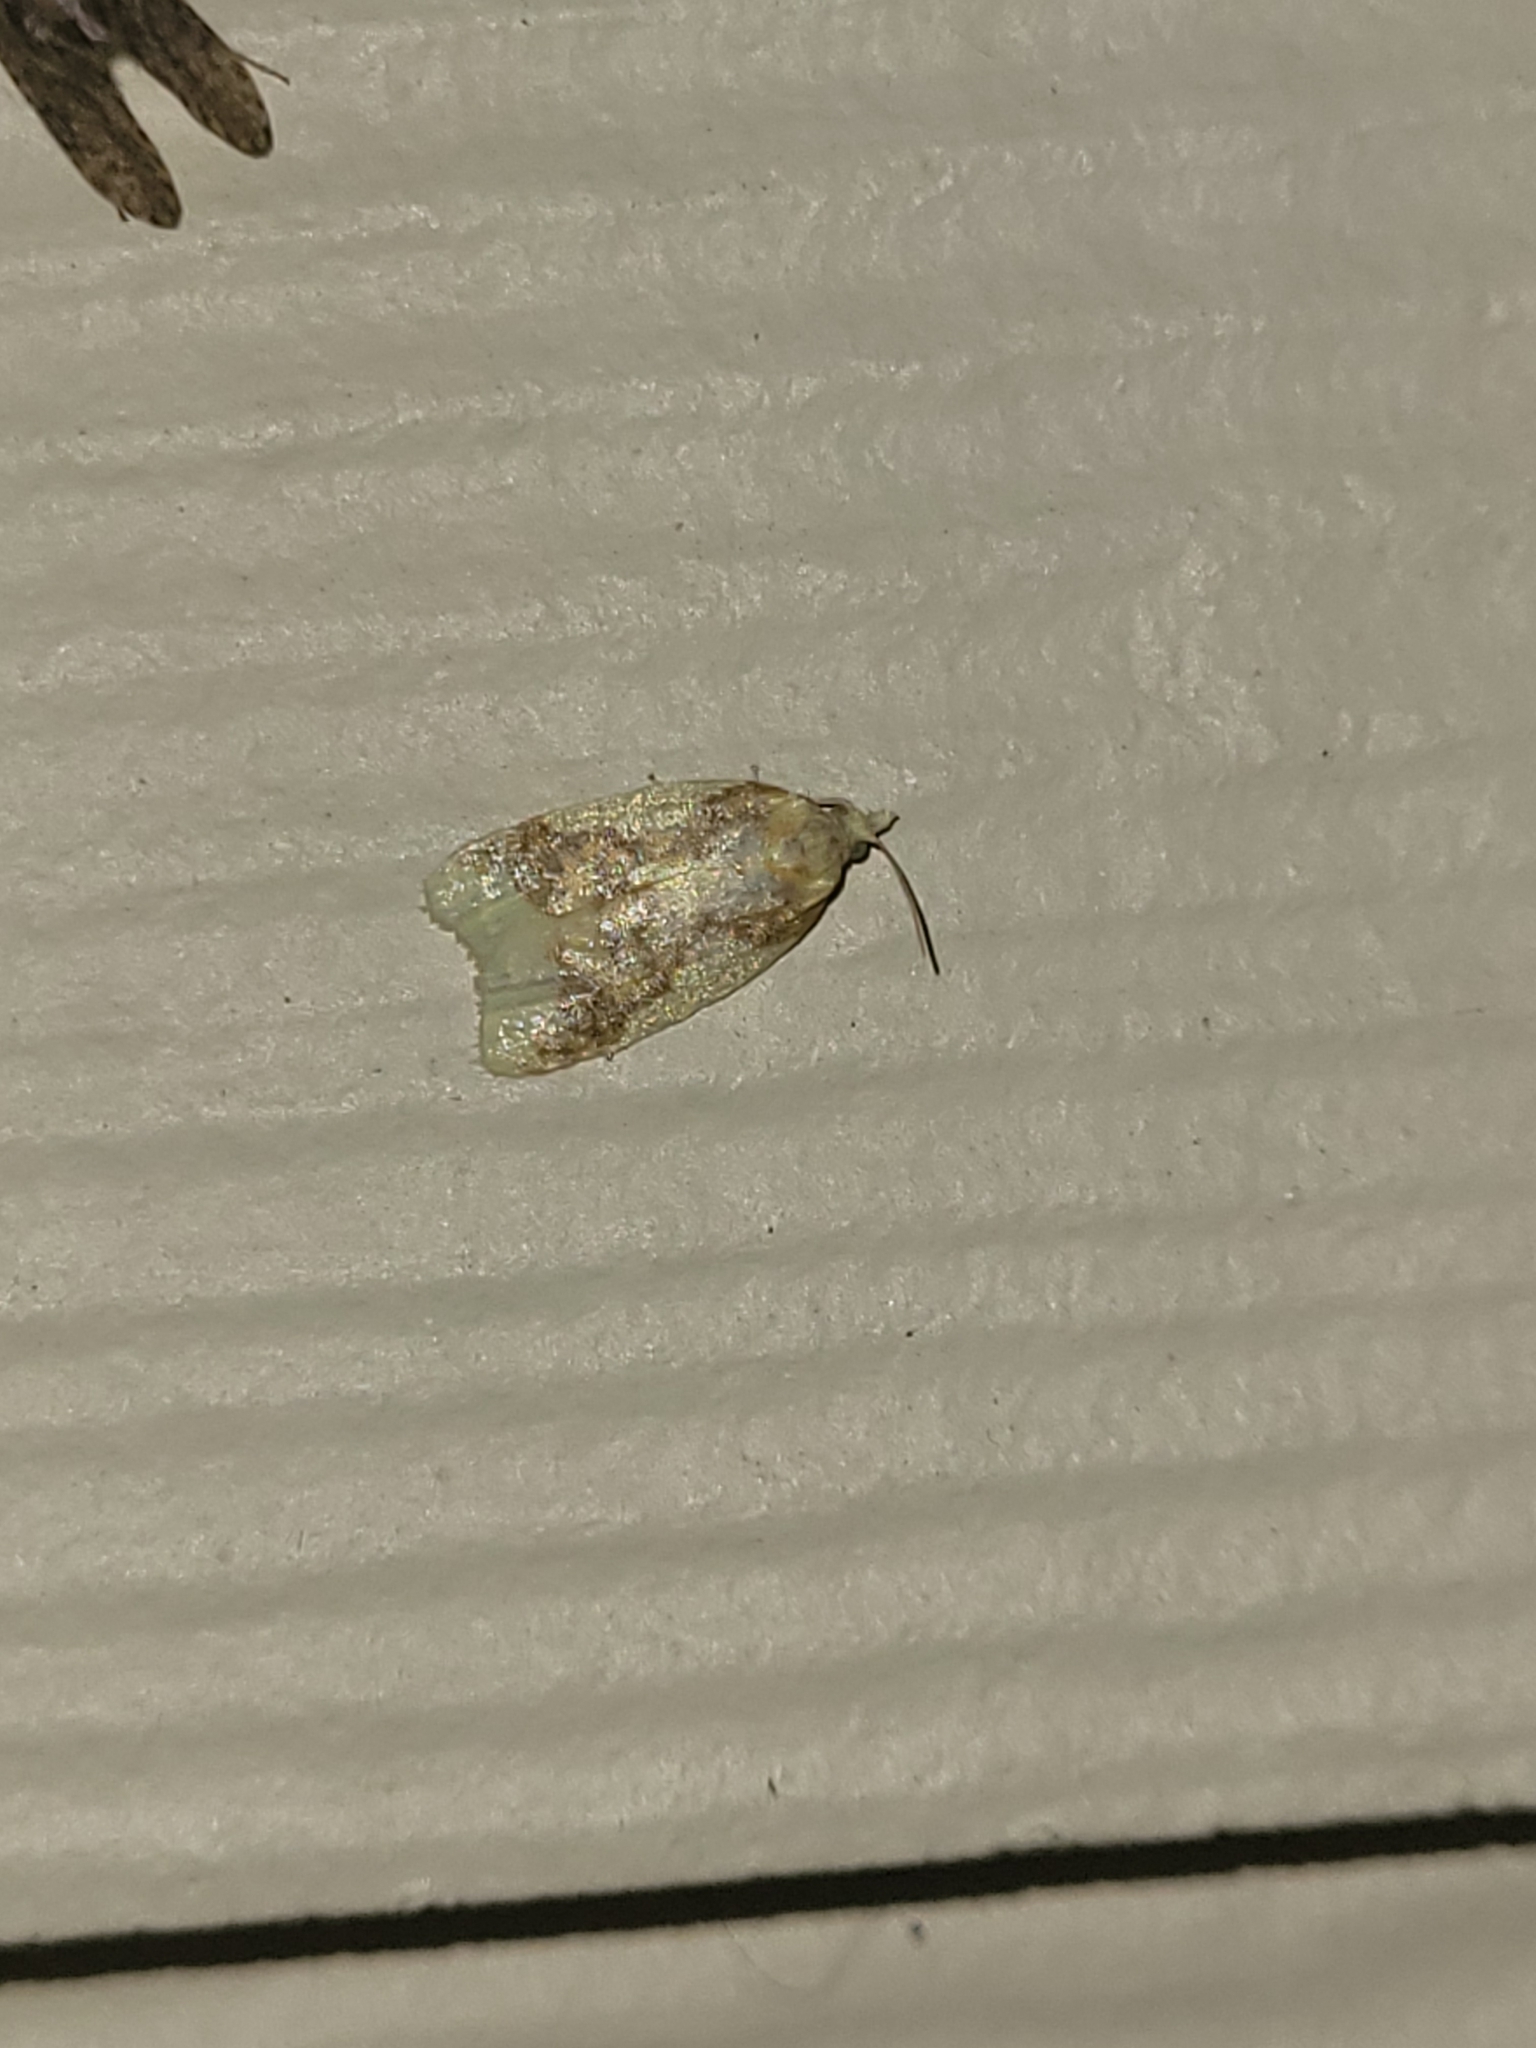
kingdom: Animalia
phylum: Arthropoda
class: Insecta
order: Lepidoptera
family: Tortricidae
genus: Sparganothis
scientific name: Sparganothis pulcherrimana
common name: Beautiful sparganothis
